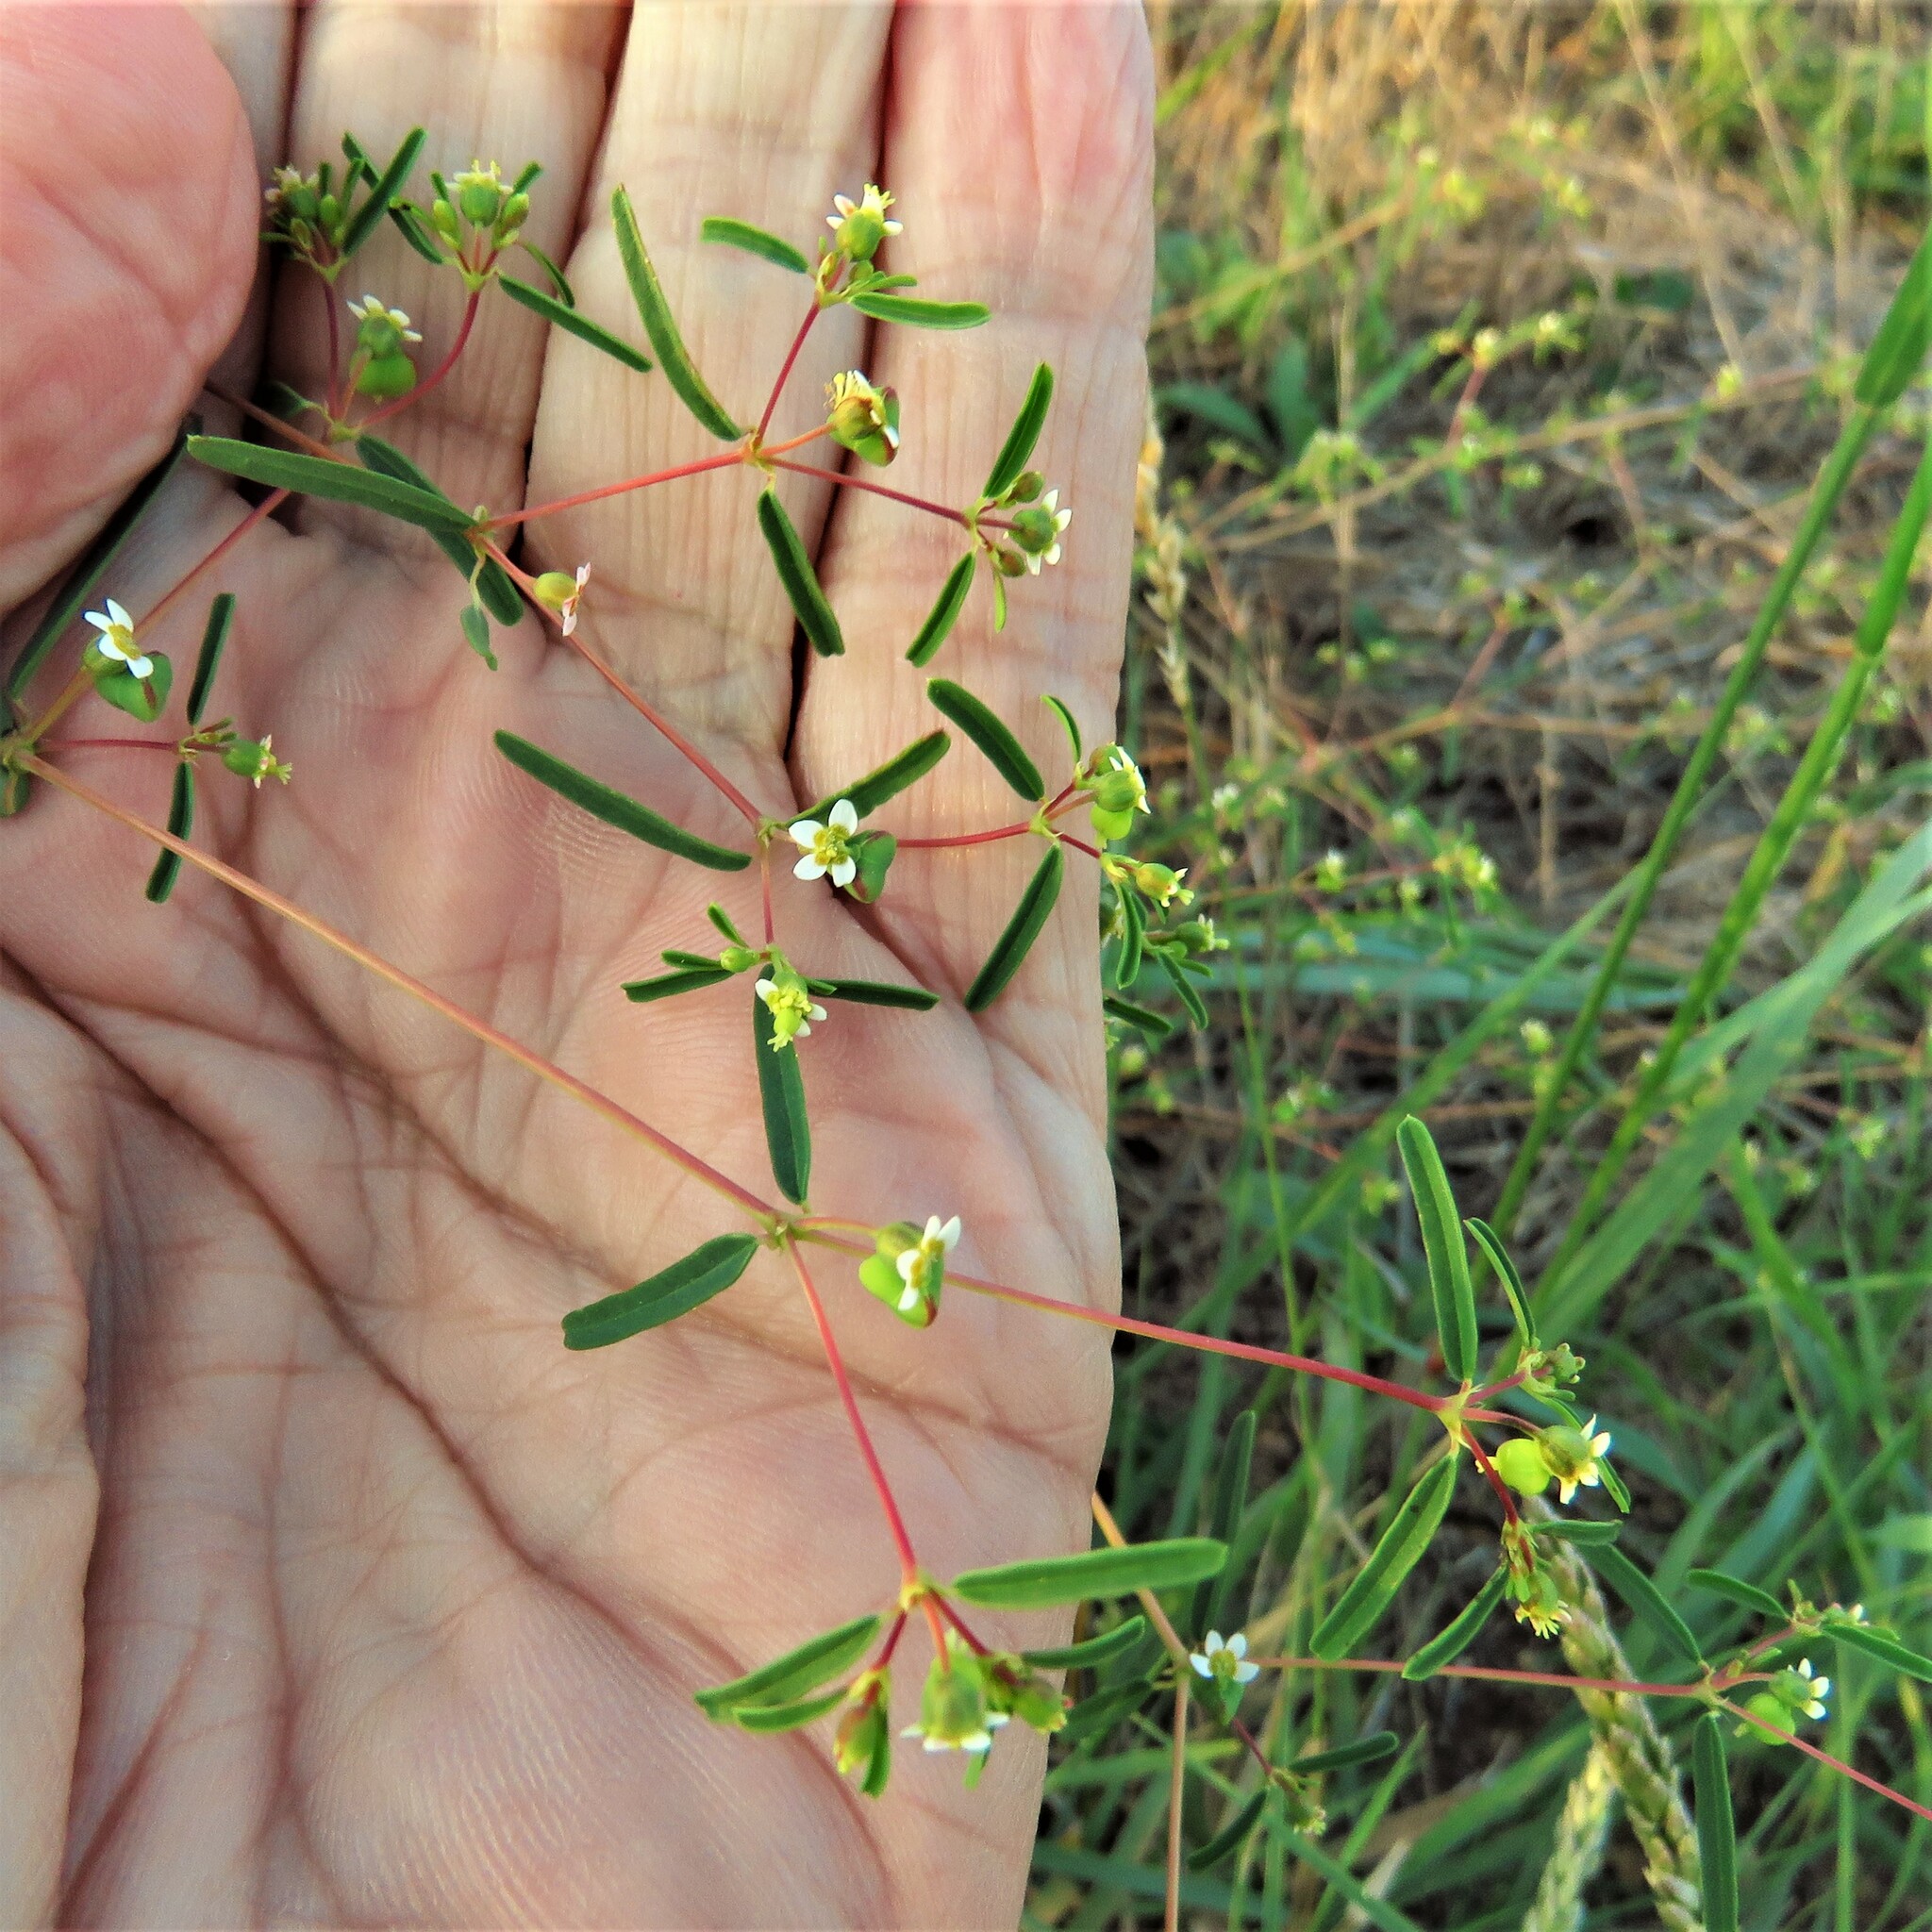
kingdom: Plantae
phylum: Tracheophyta
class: Magnoliopsida
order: Malpighiales
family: Euphorbiaceae
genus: Euphorbia
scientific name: Euphorbia missurica
